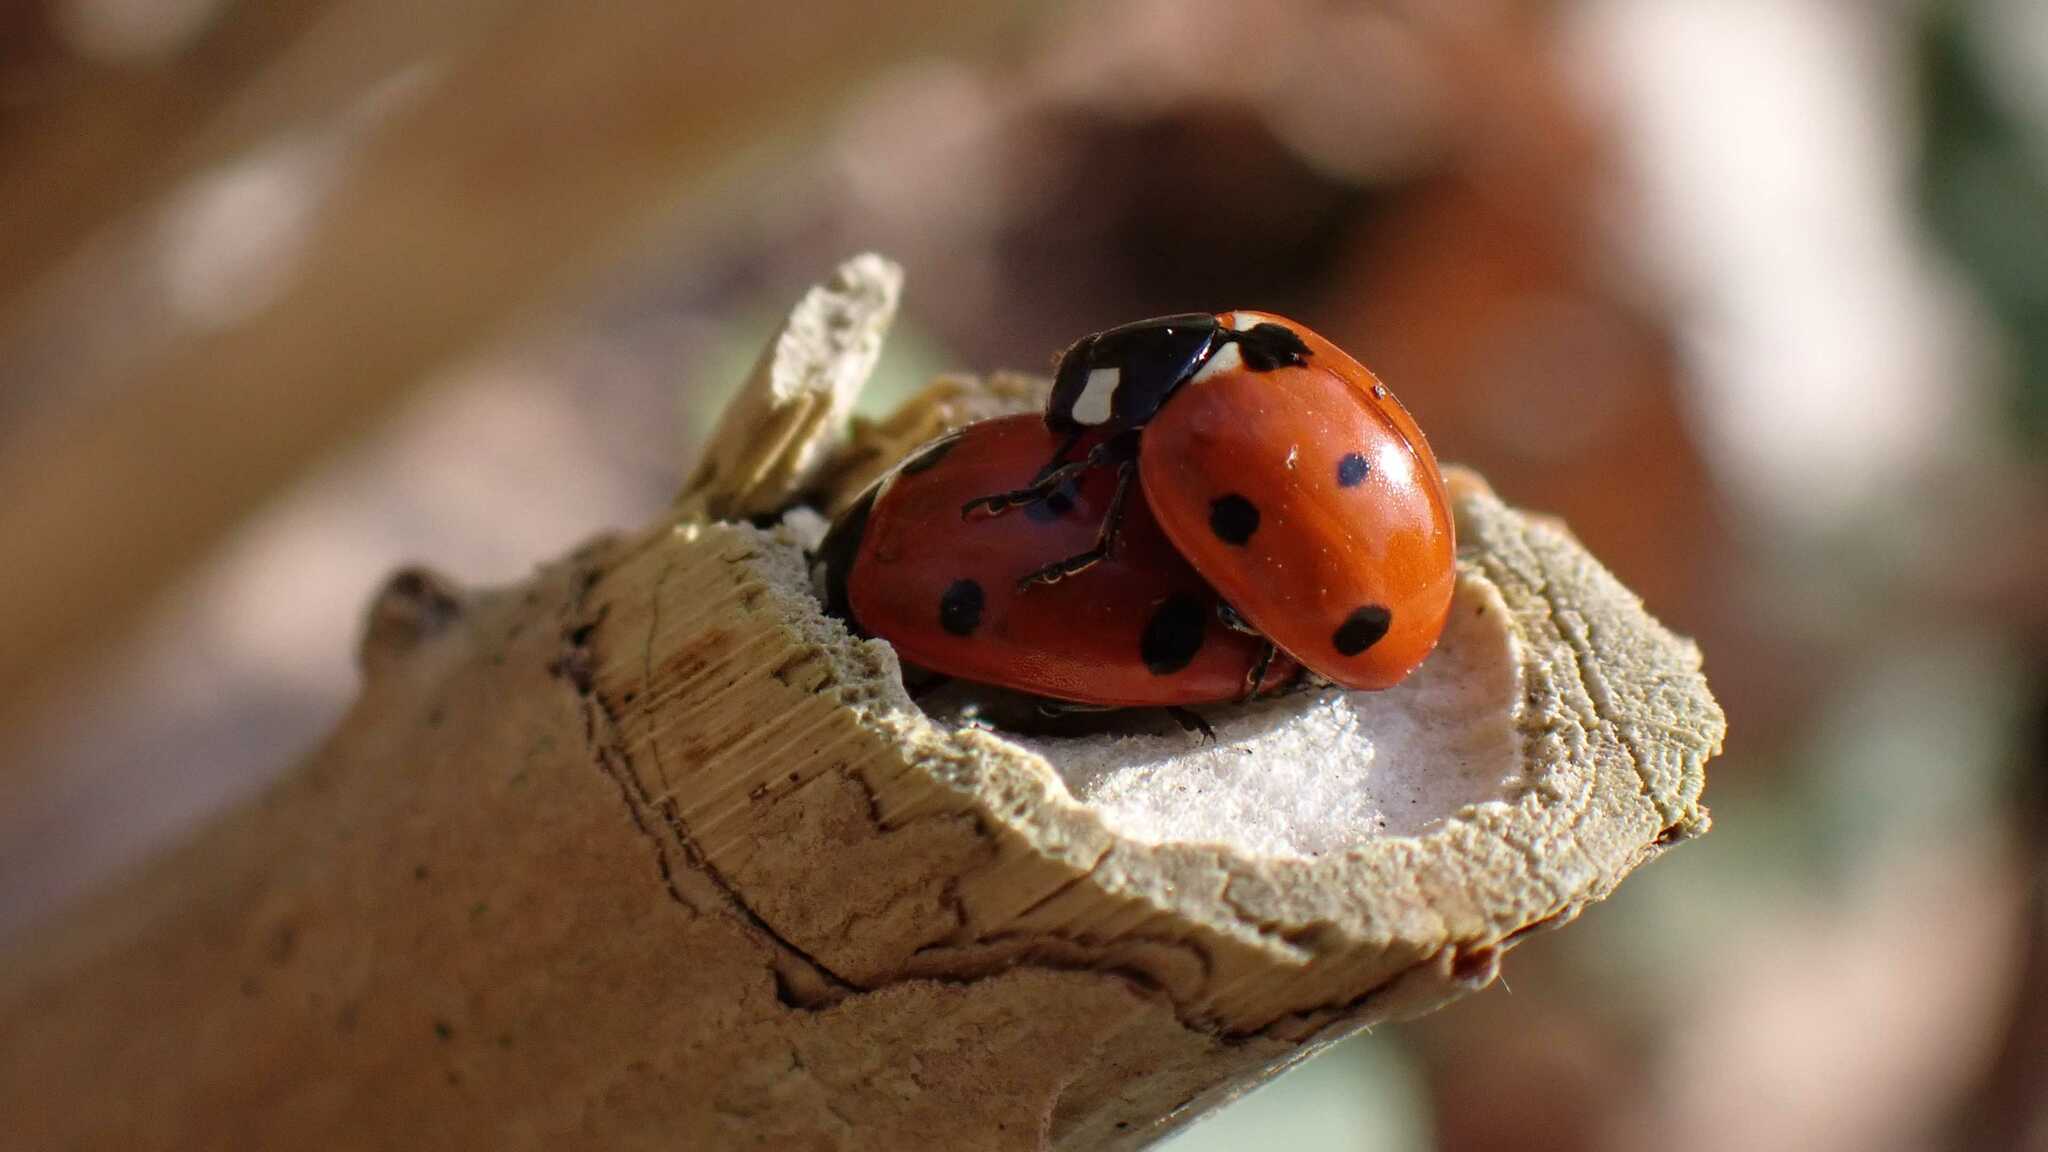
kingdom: Animalia
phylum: Arthropoda
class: Insecta
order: Coleoptera
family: Coccinellidae
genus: Coccinella
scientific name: Coccinella septempunctata
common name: Sevenspotted lady beetle
